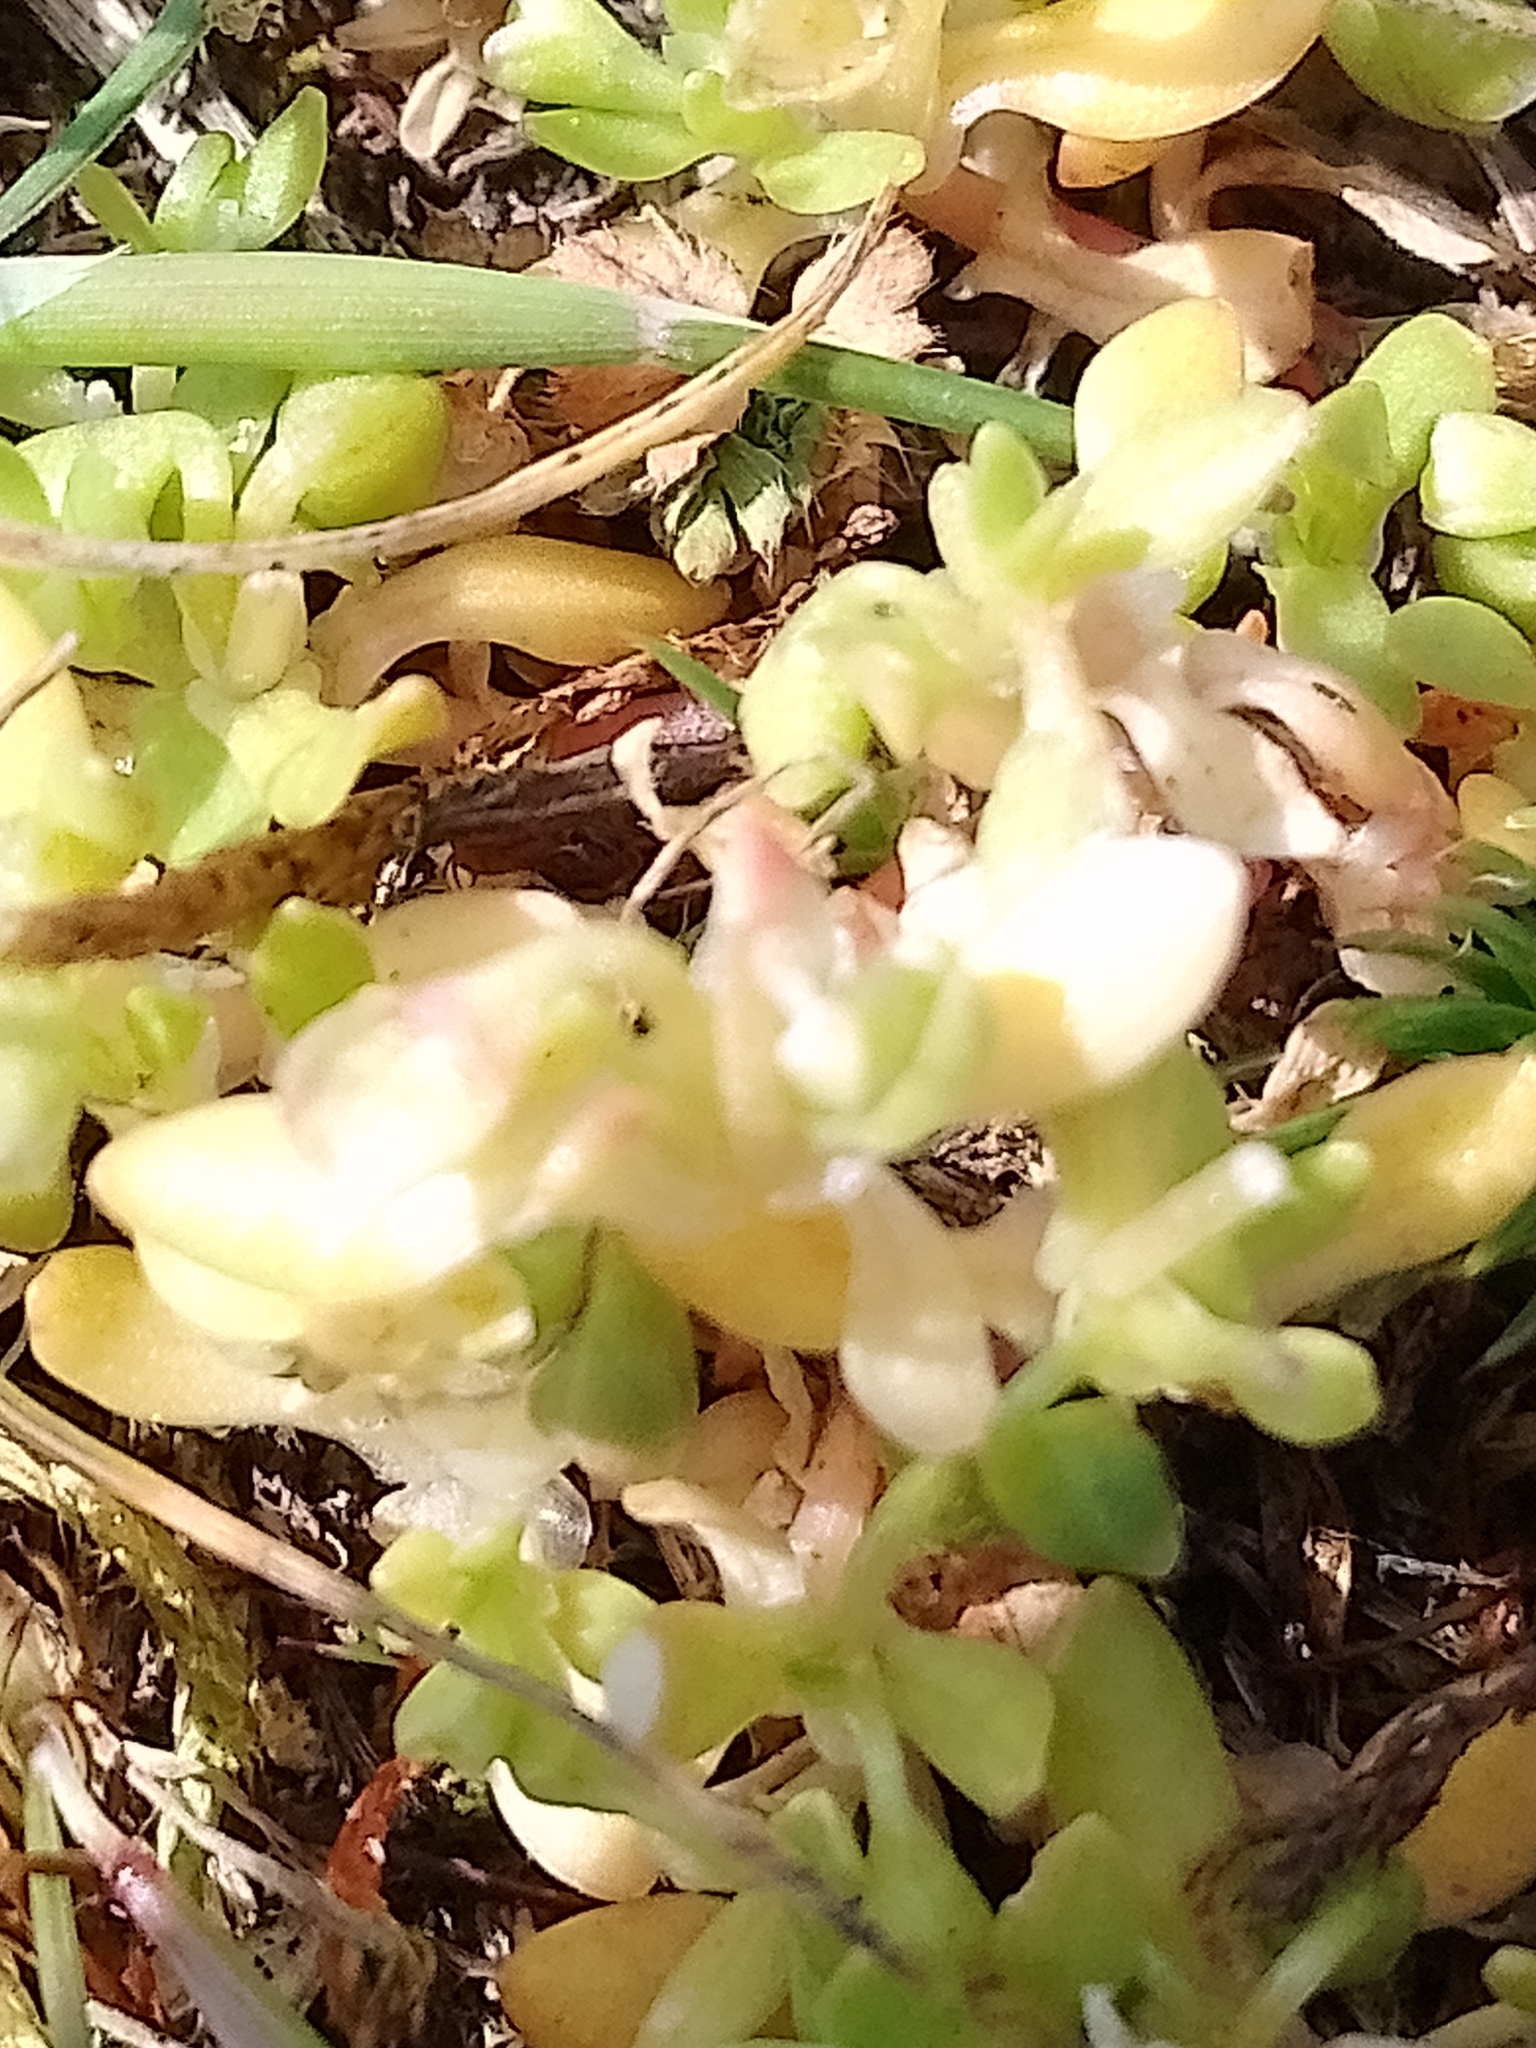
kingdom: Plantae
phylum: Tracheophyta
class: Magnoliopsida
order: Caryophyllales
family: Montiaceae
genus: Montia
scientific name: Montia fontana
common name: Blinks
